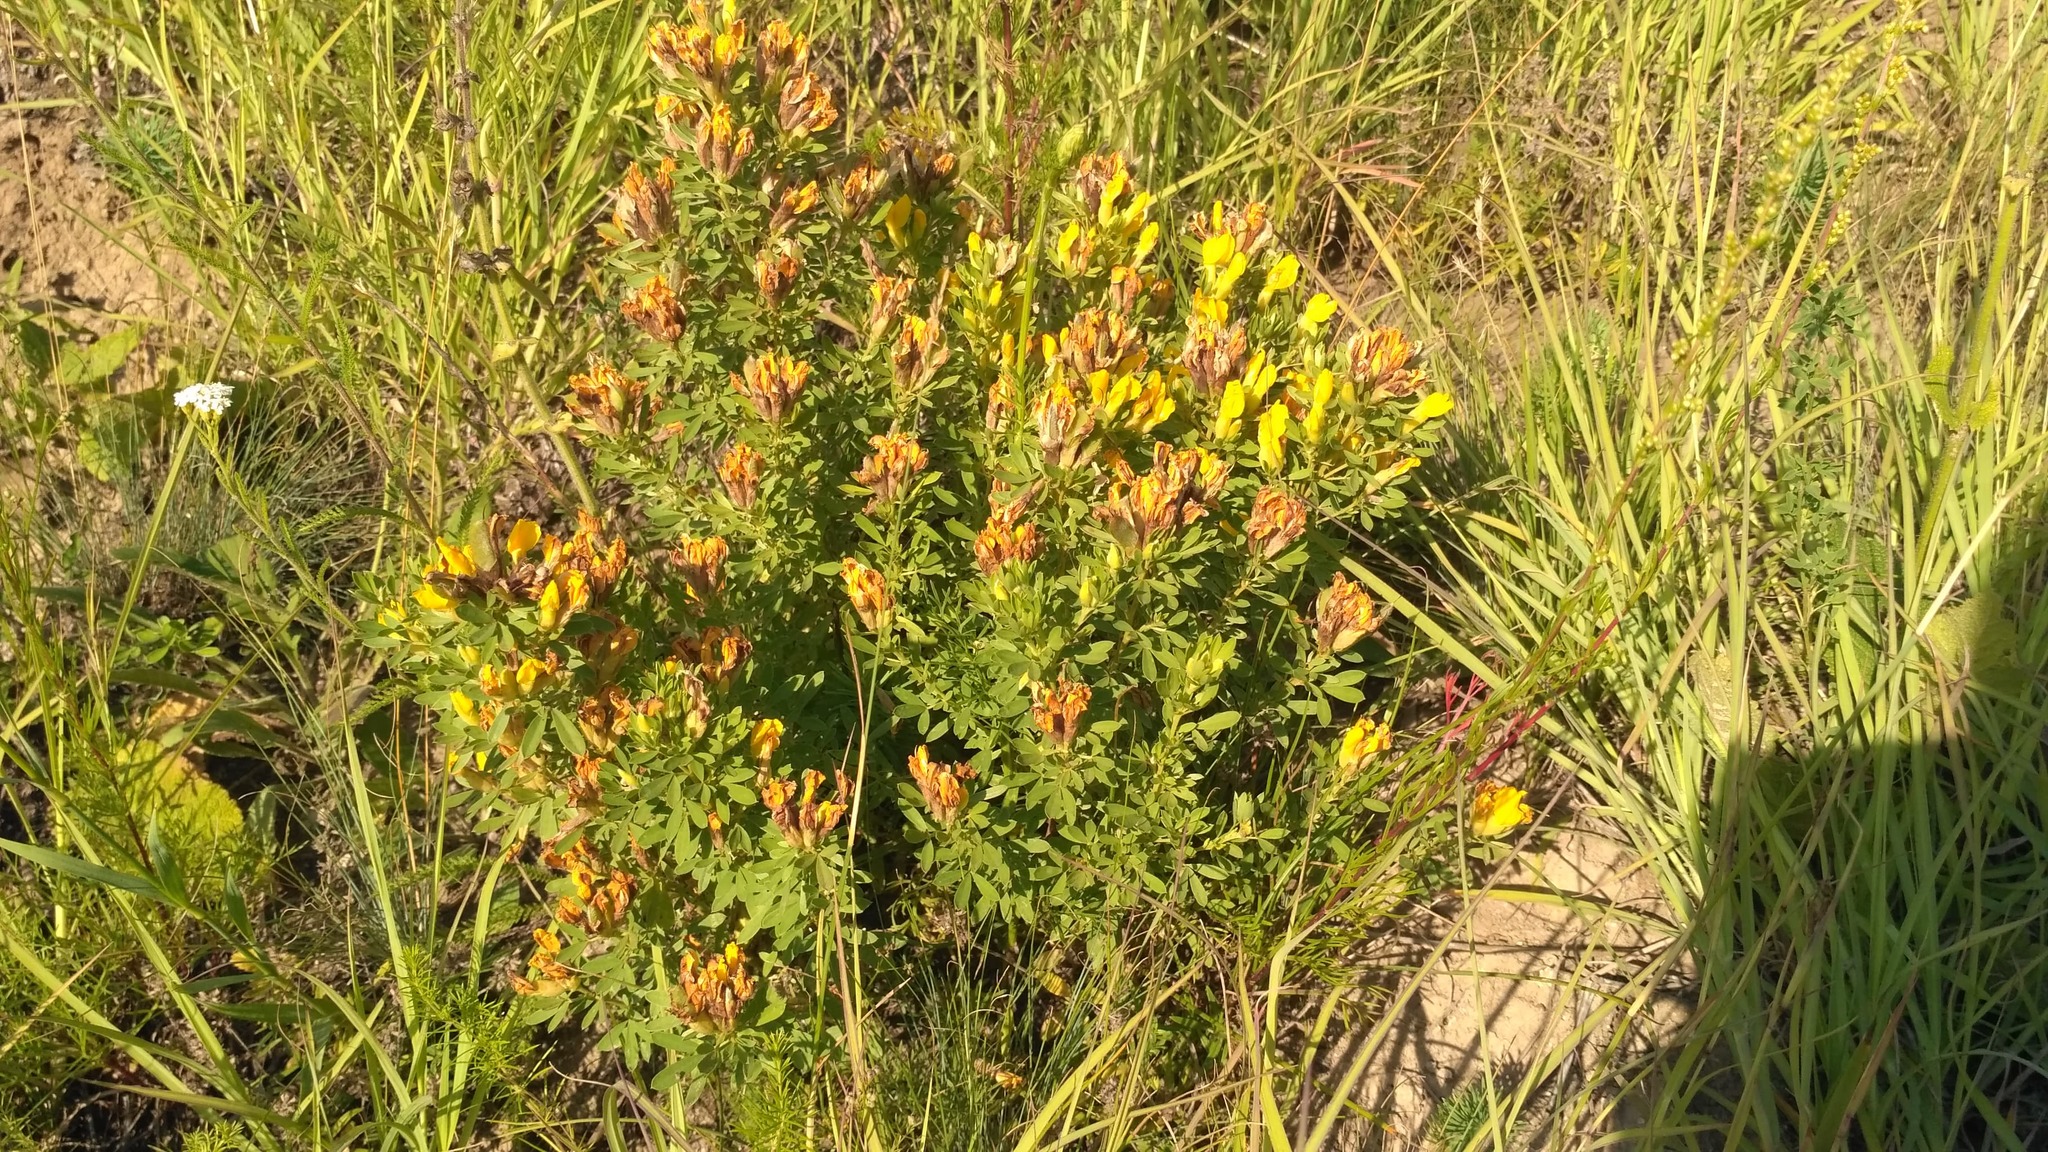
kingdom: Plantae
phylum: Tracheophyta
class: Magnoliopsida
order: Fabales
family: Fabaceae
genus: Chamaecytisus
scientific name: Chamaecytisus austriacus
